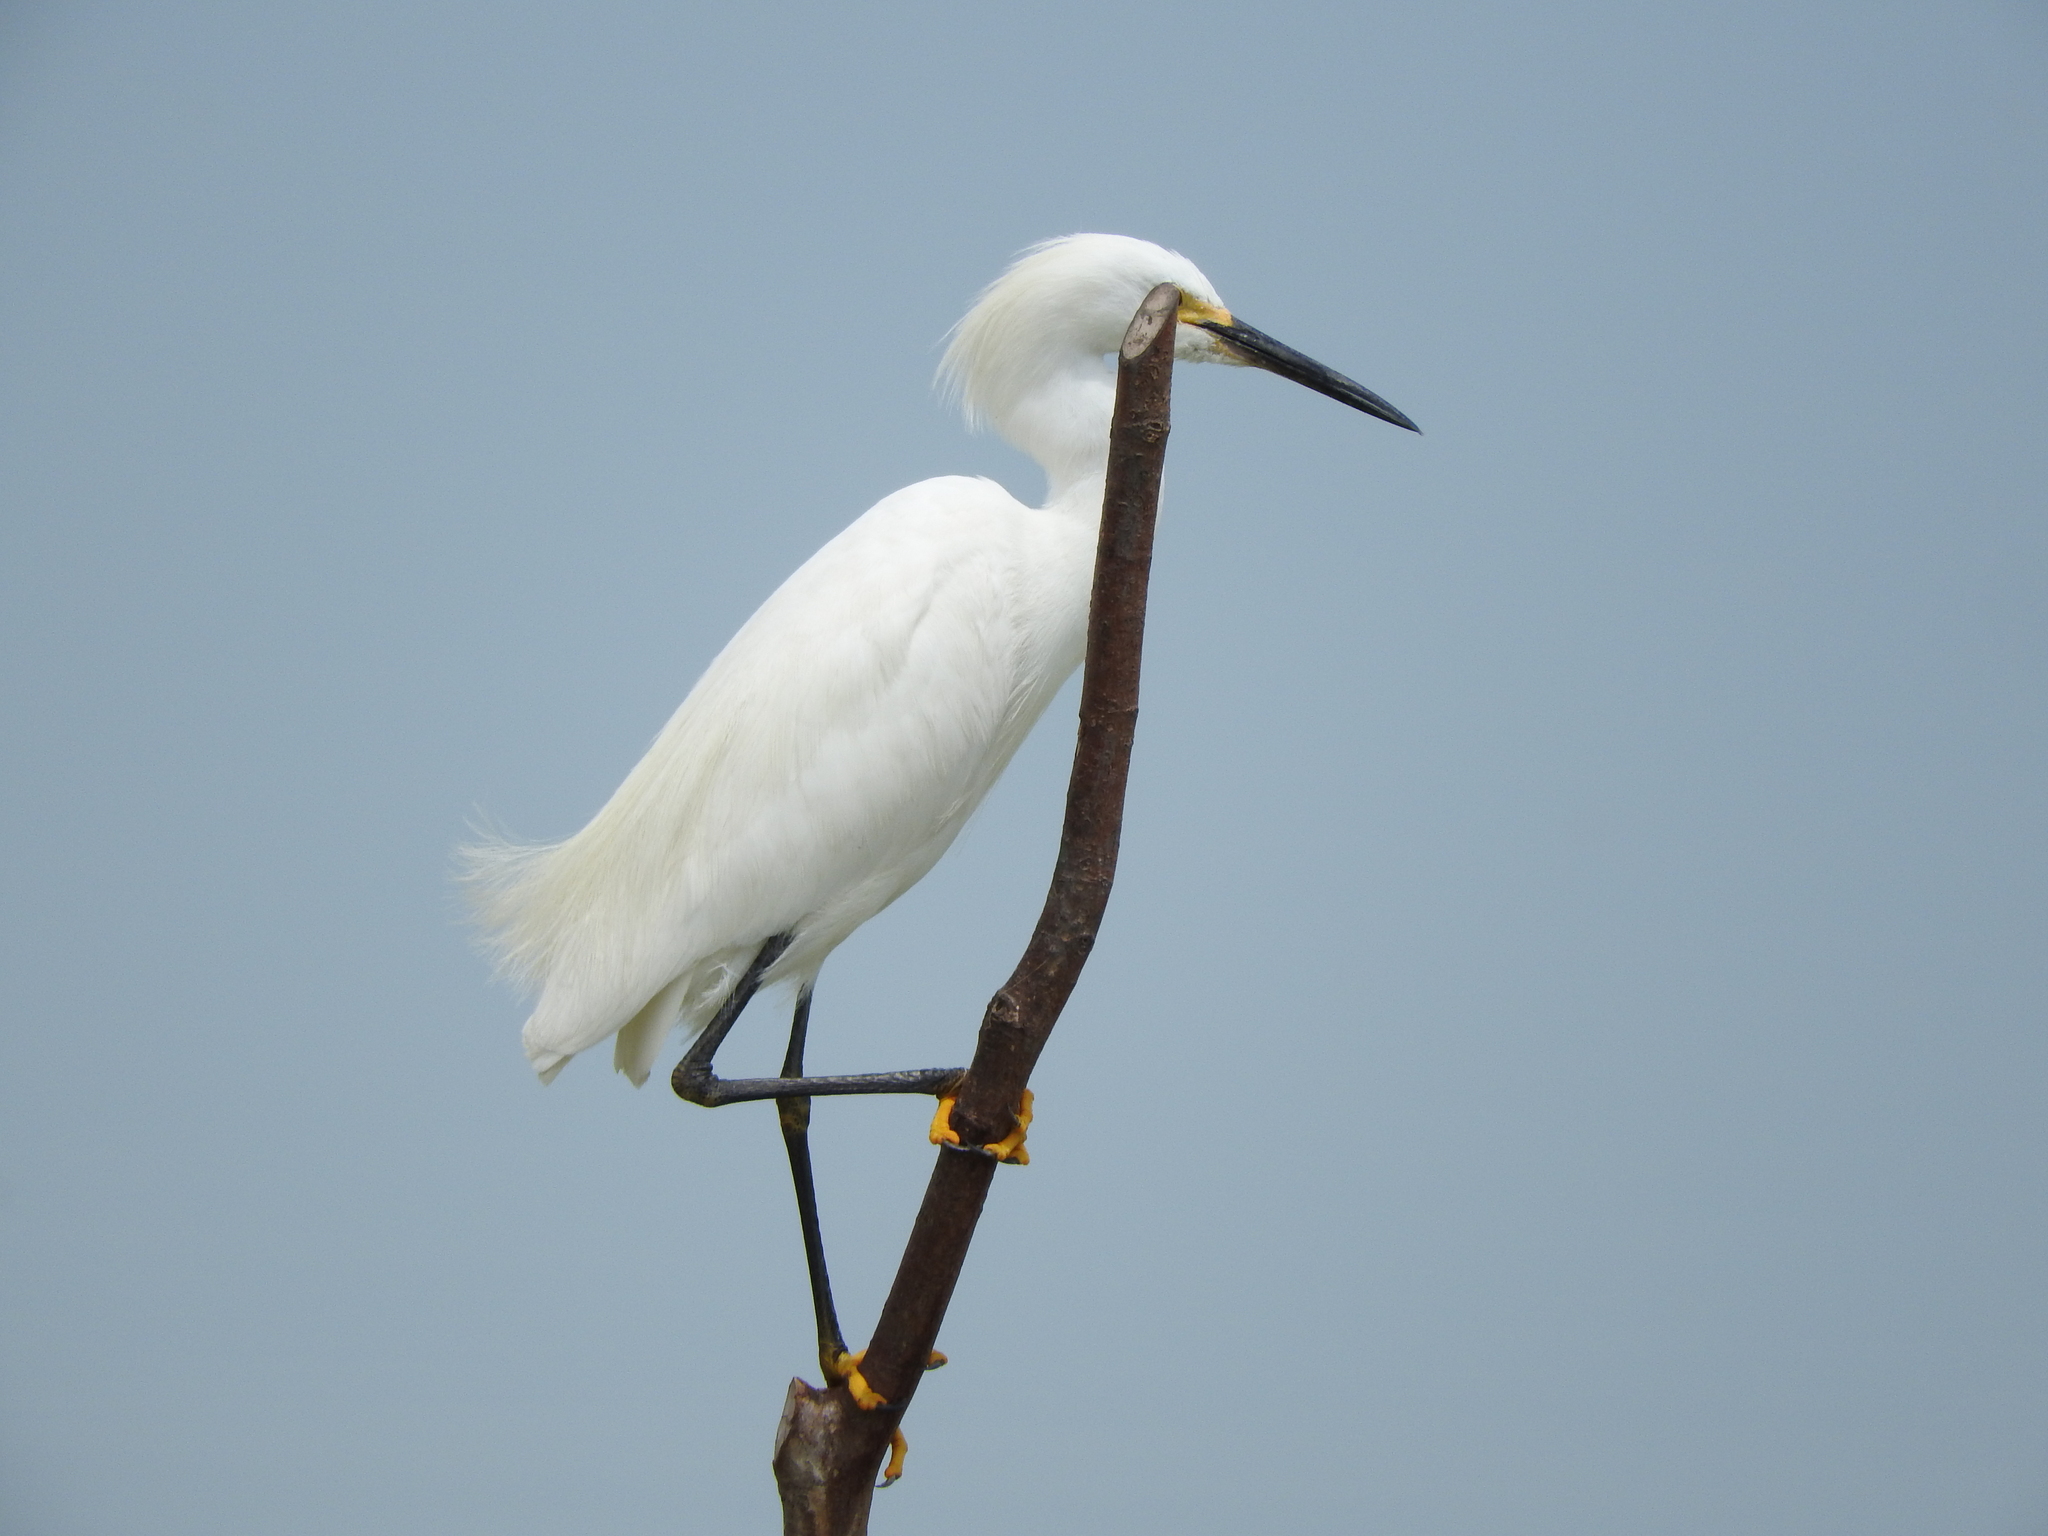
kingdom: Animalia
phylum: Chordata
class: Aves
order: Pelecaniformes
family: Ardeidae
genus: Egretta
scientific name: Egretta thula
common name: Snowy egret
